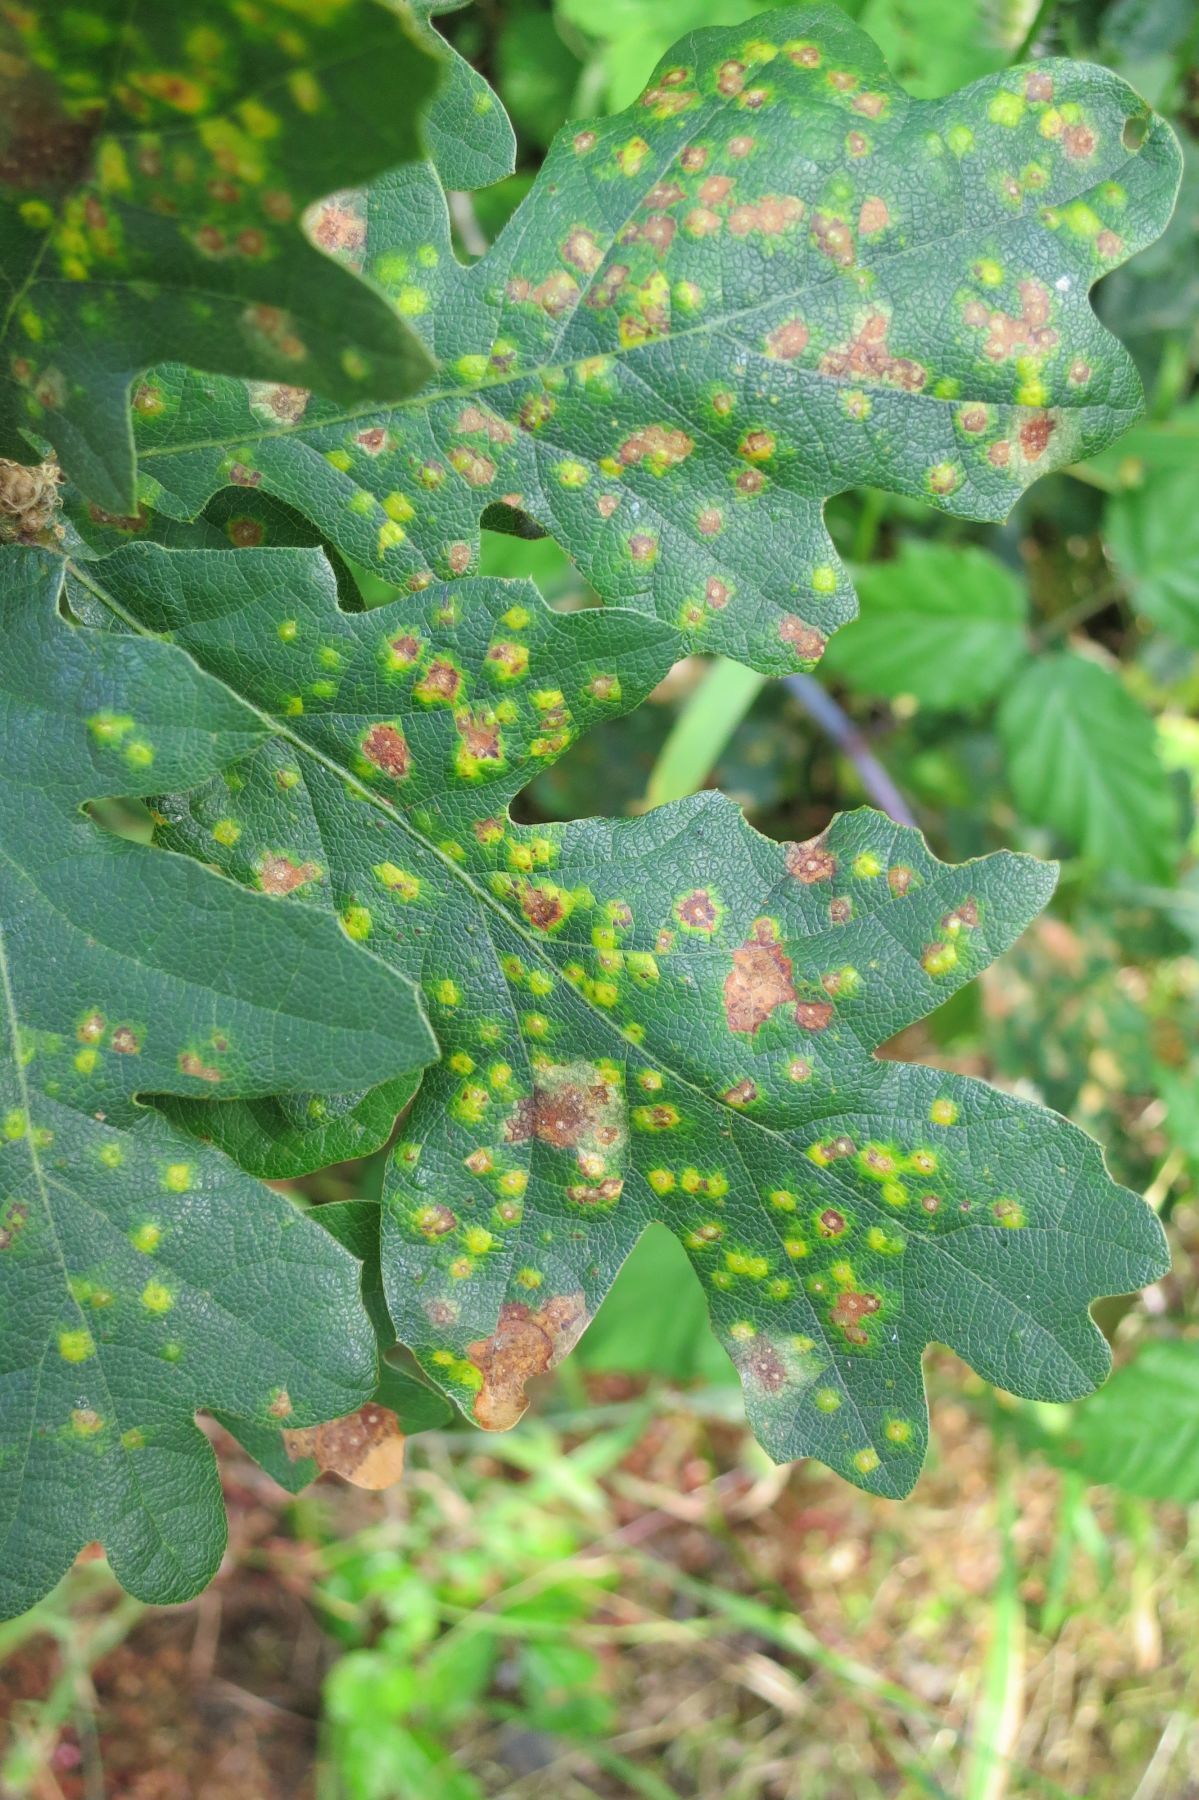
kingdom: Animalia
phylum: Arthropoda
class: Insecta
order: Hymenoptera
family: Cynipidae
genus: Neuroterus
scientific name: Neuroterus saltarius
